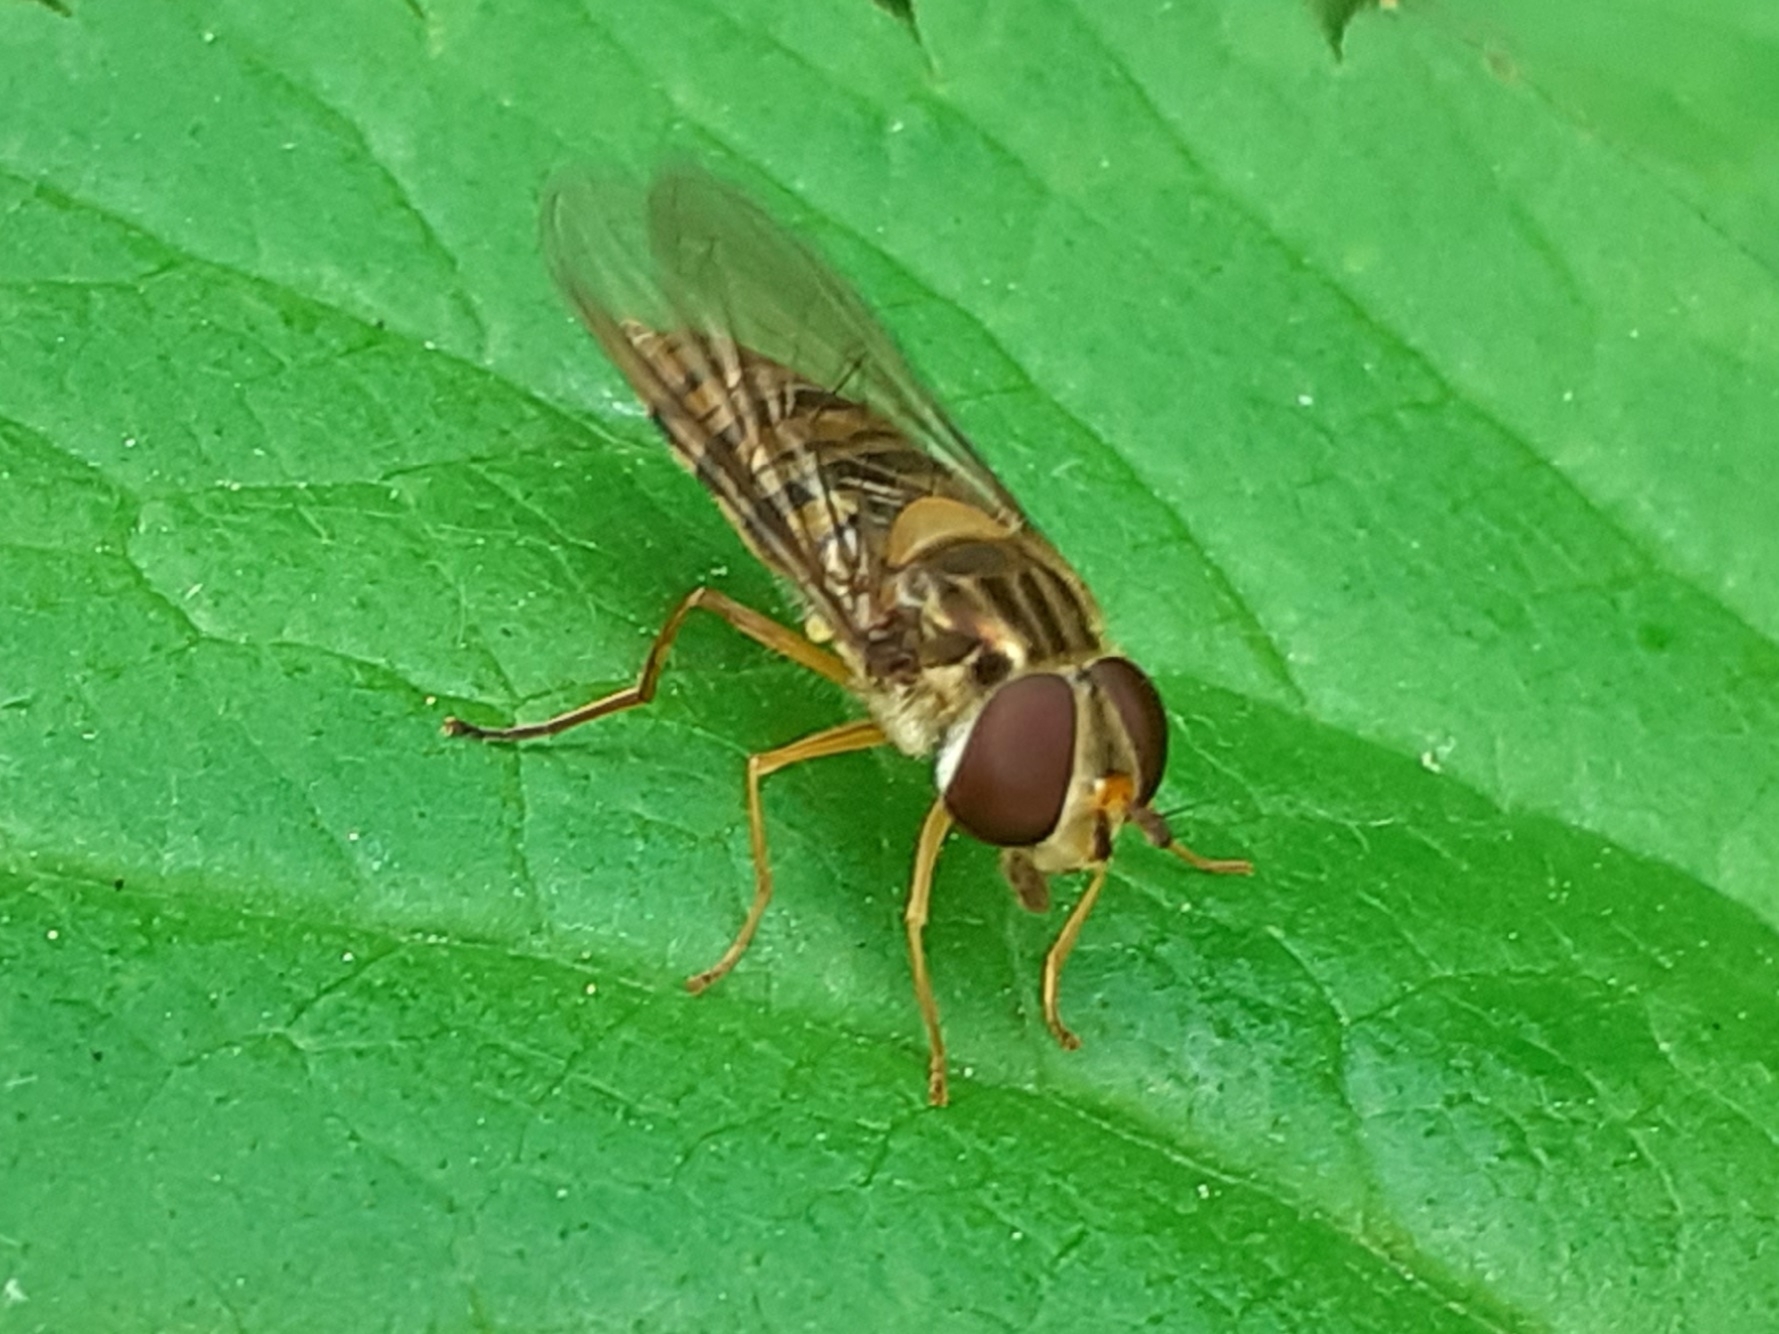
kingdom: Animalia
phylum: Arthropoda
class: Insecta
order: Diptera
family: Syrphidae
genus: Episyrphus
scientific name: Episyrphus balteatus
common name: Marmalade hoverfly
